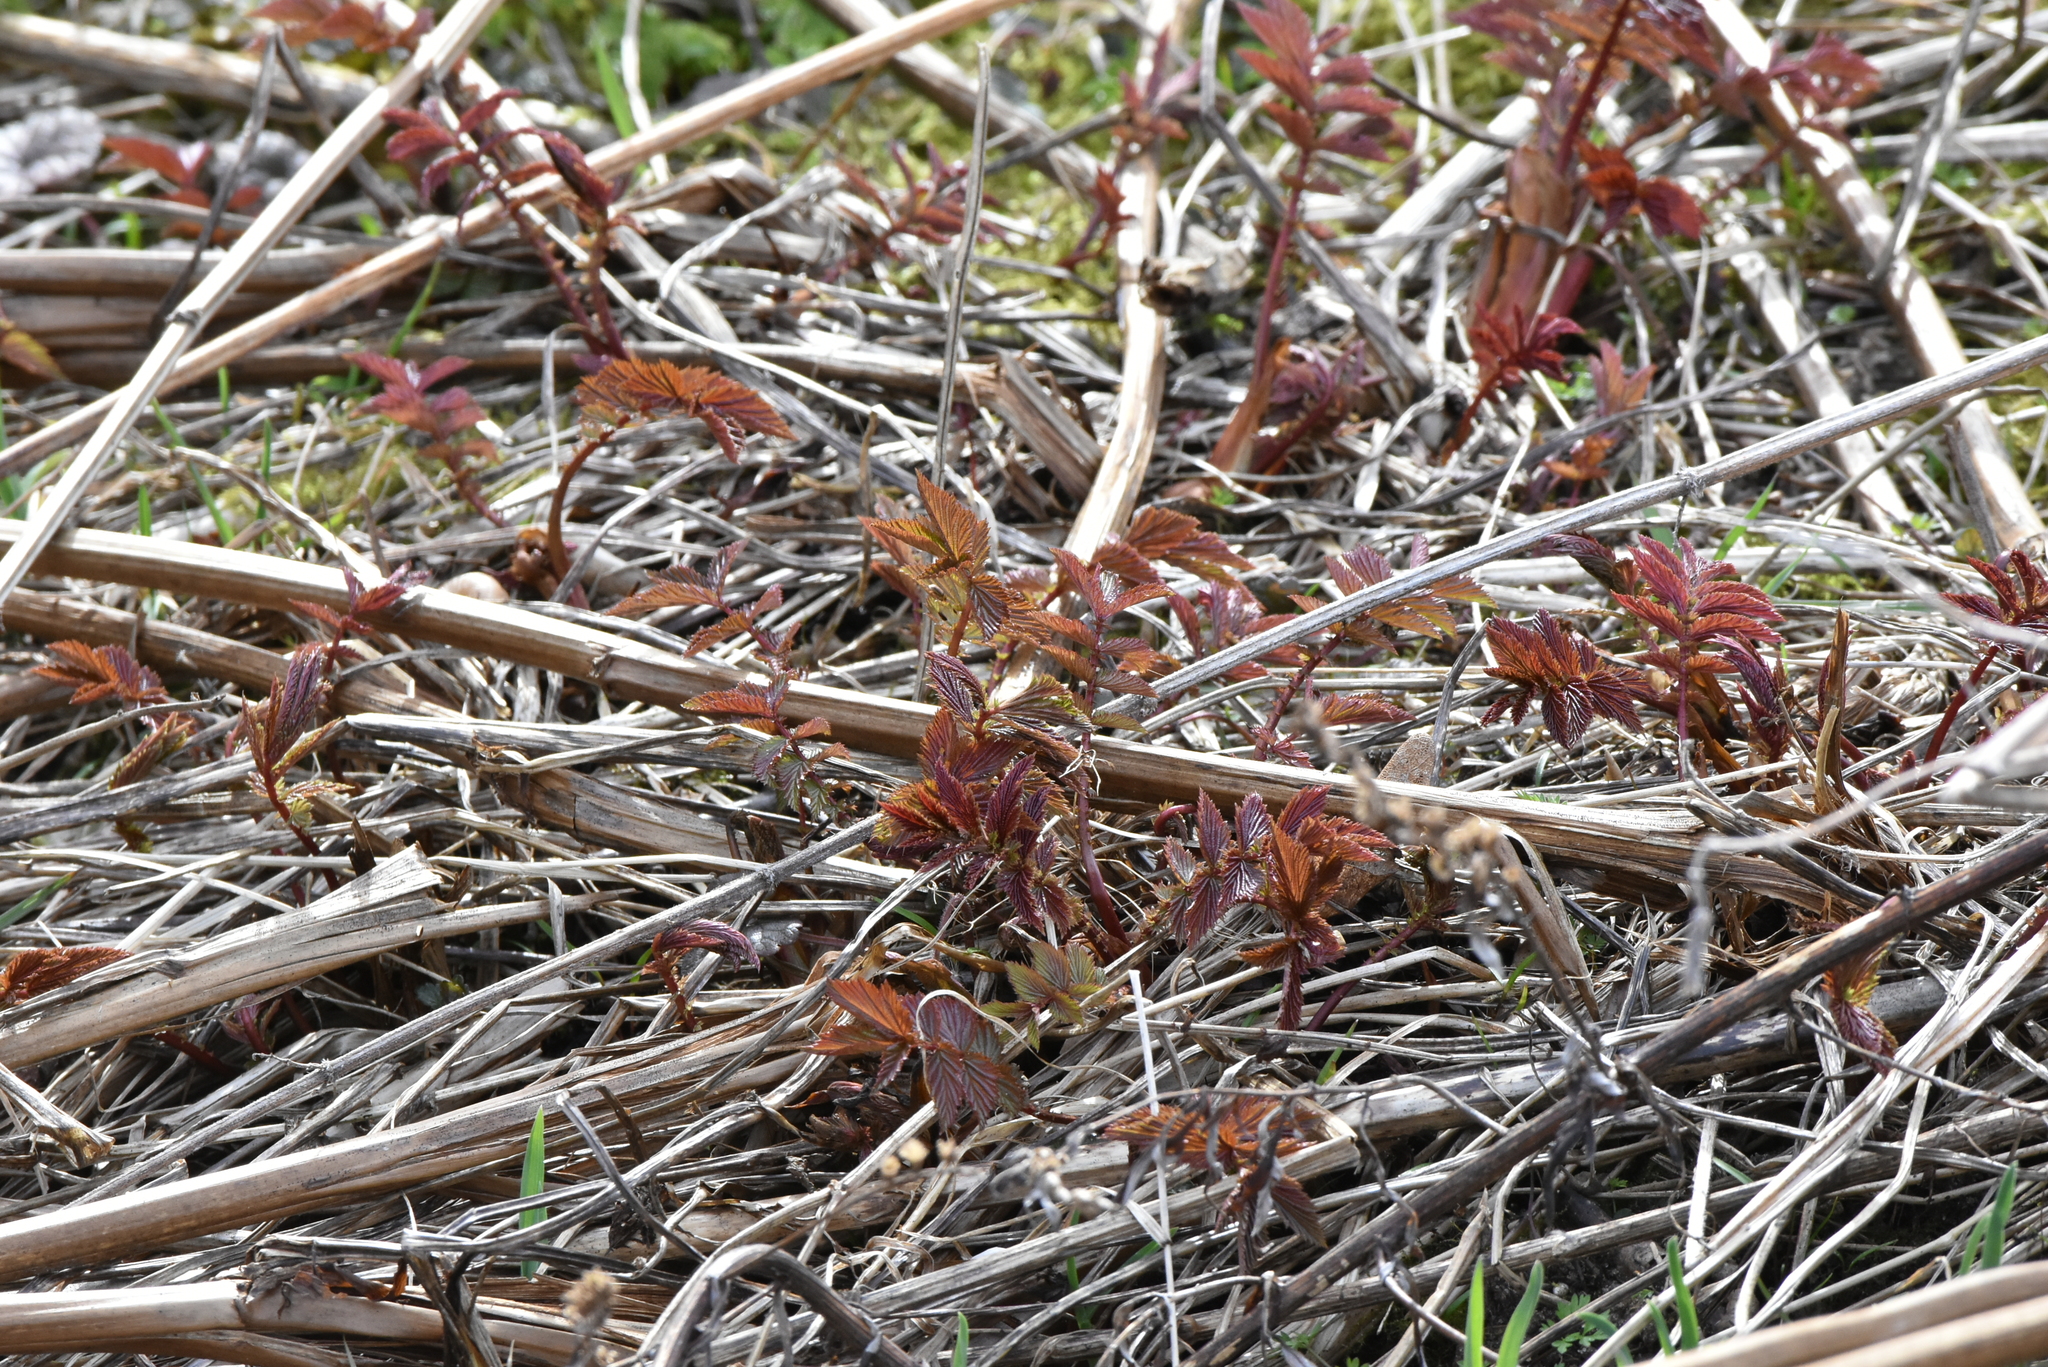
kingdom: Plantae
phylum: Tracheophyta
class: Magnoliopsida
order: Rosales
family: Rosaceae
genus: Filipendula
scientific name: Filipendula ulmaria
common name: Meadowsweet
